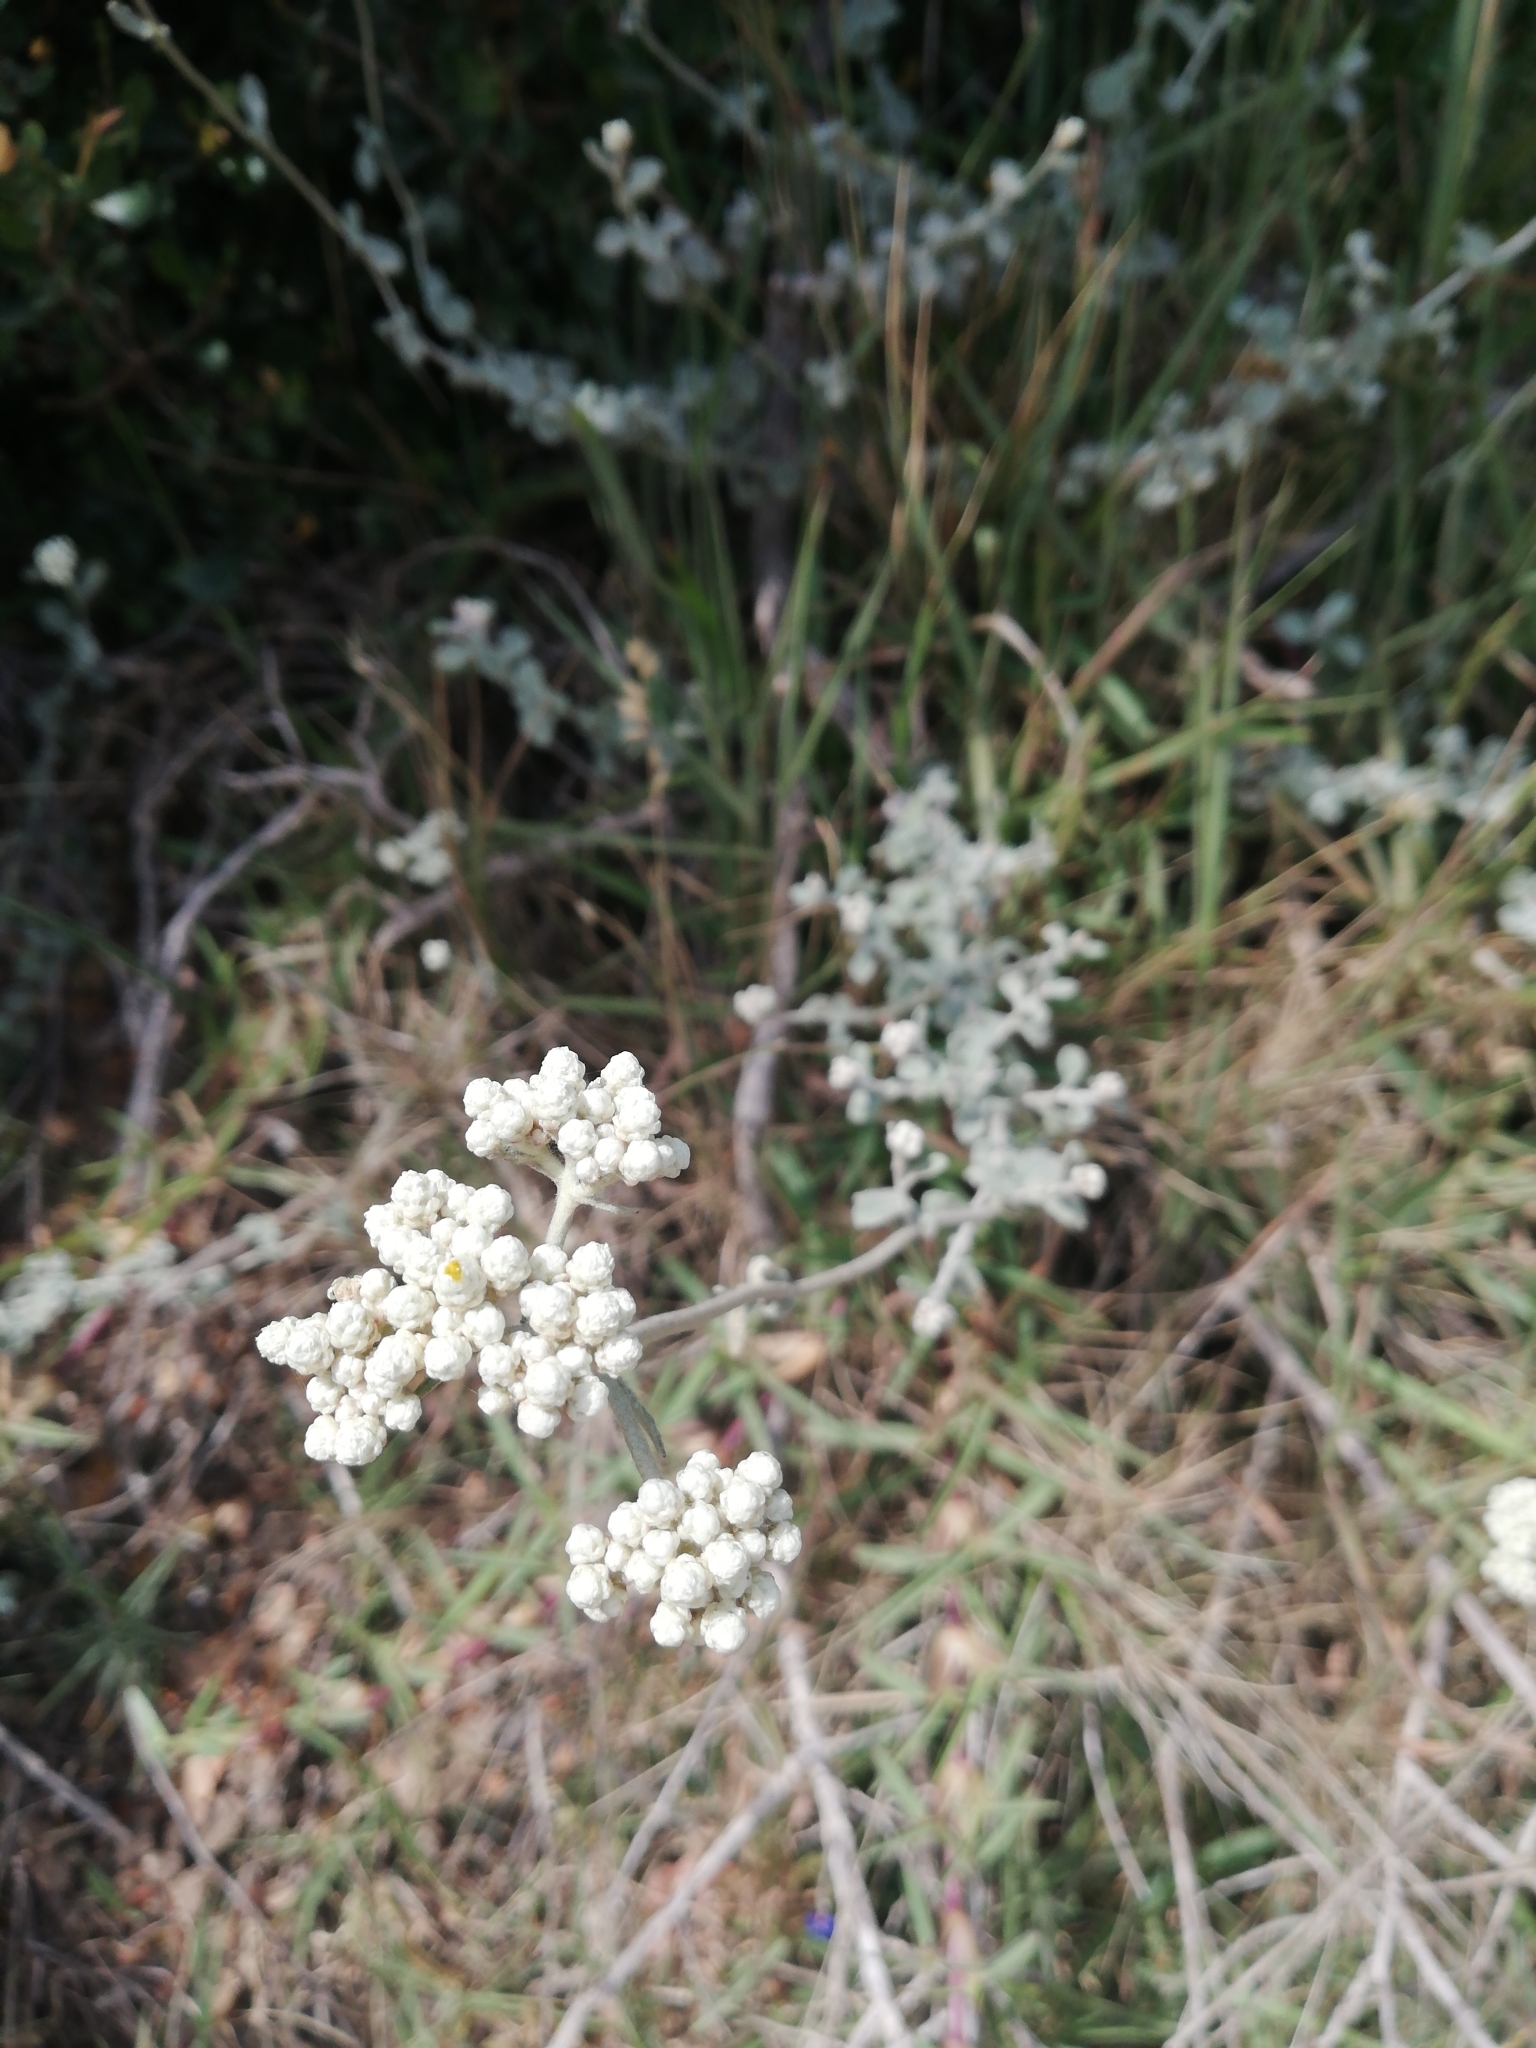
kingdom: Plantae
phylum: Tracheophyta
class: Magnoliopsida
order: Asterales
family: Asteraceae
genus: Helichrysum
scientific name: Helichrysum patulum
